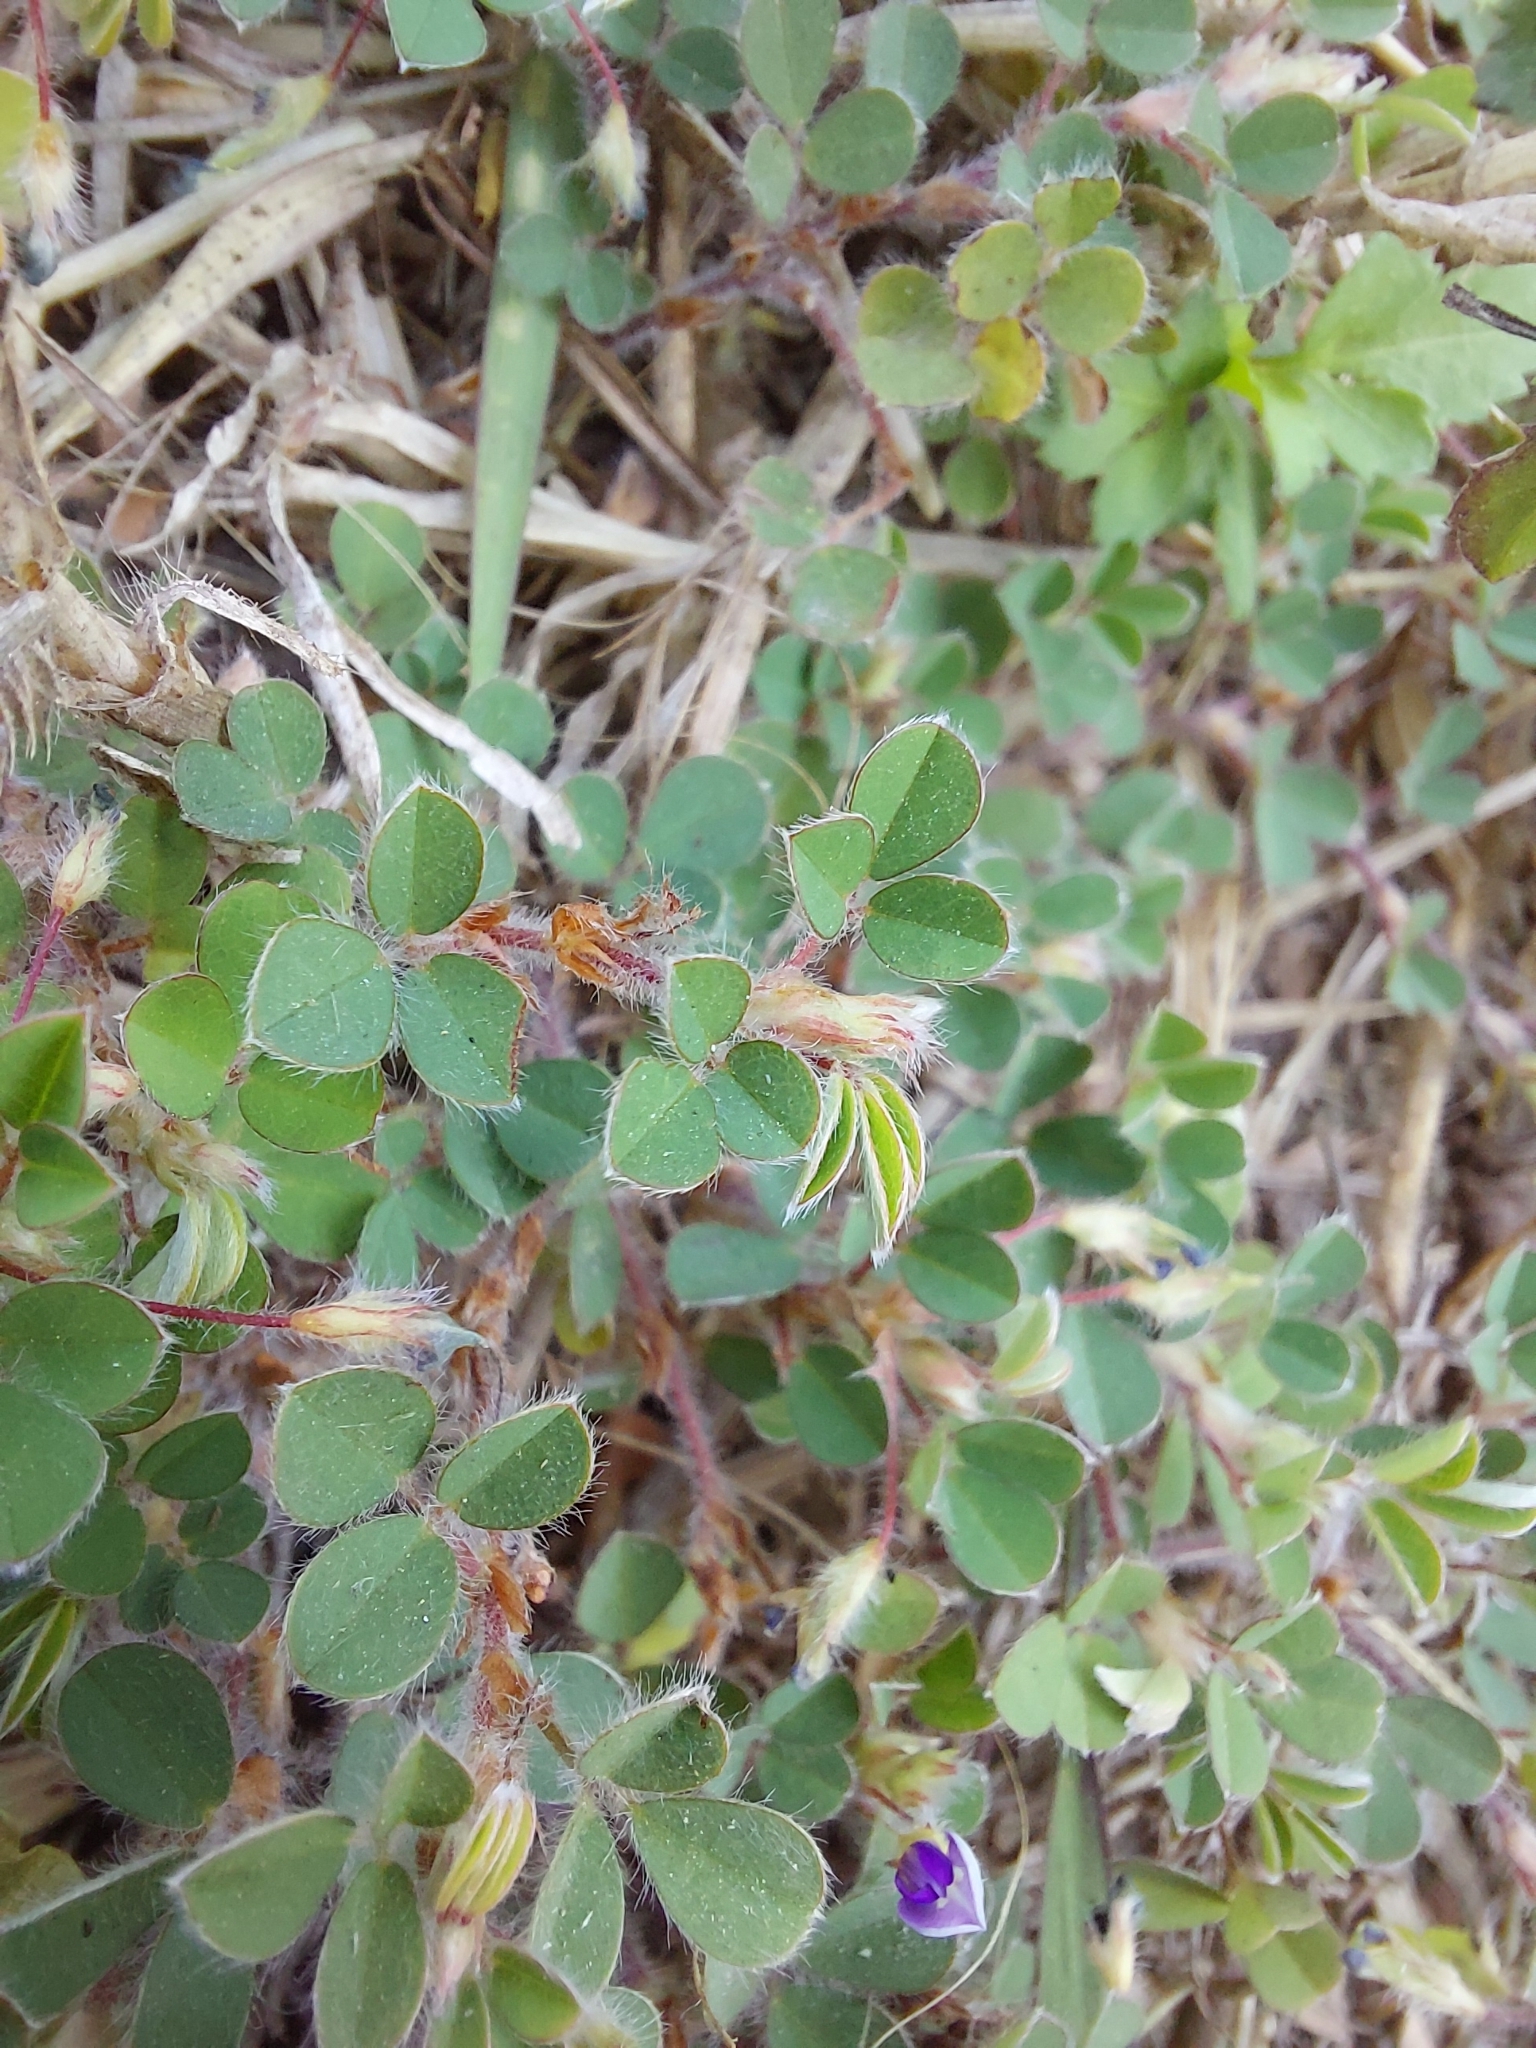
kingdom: Plantae
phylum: Tracheophyta
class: Magnoliopsida
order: Fabales
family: Fabaceae
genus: Grona
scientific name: Grona triflora
